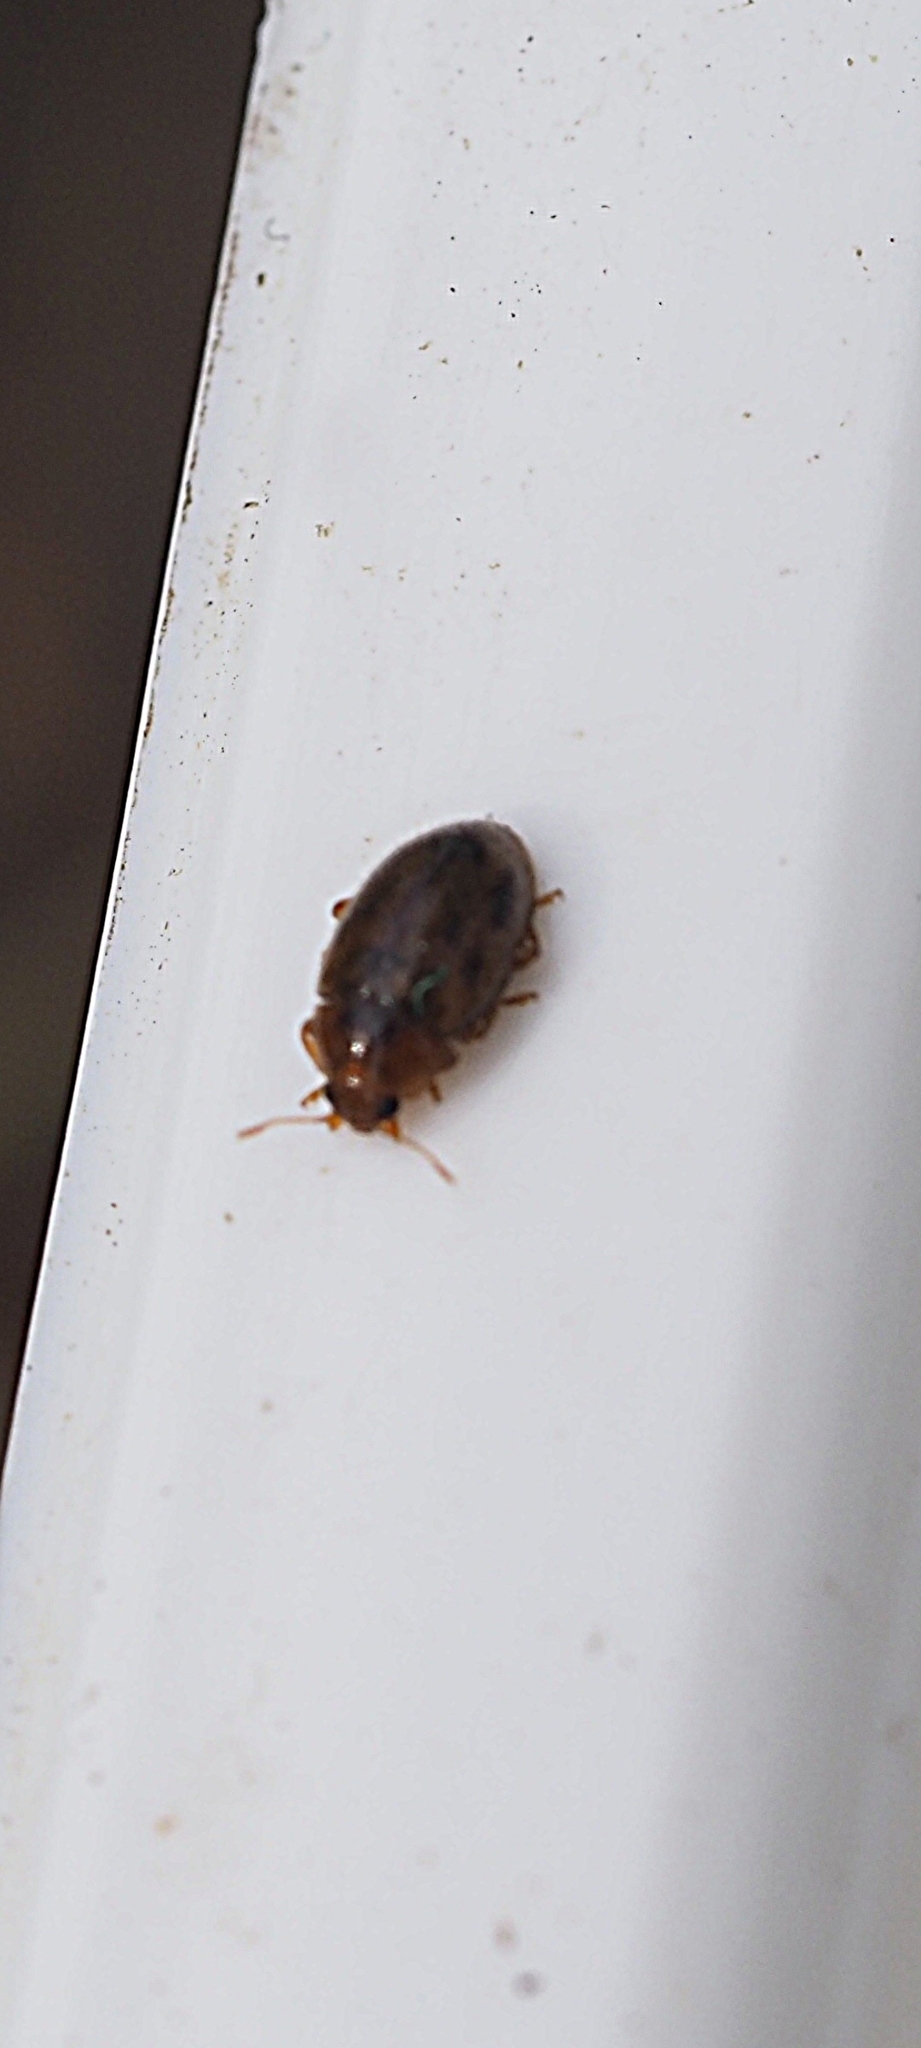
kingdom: Animalia
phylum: Arthropoda
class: Insecta
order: Coleoptera
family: Coccinellidae
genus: Rhyzobius
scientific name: Rhyzobius chrysomeloides
